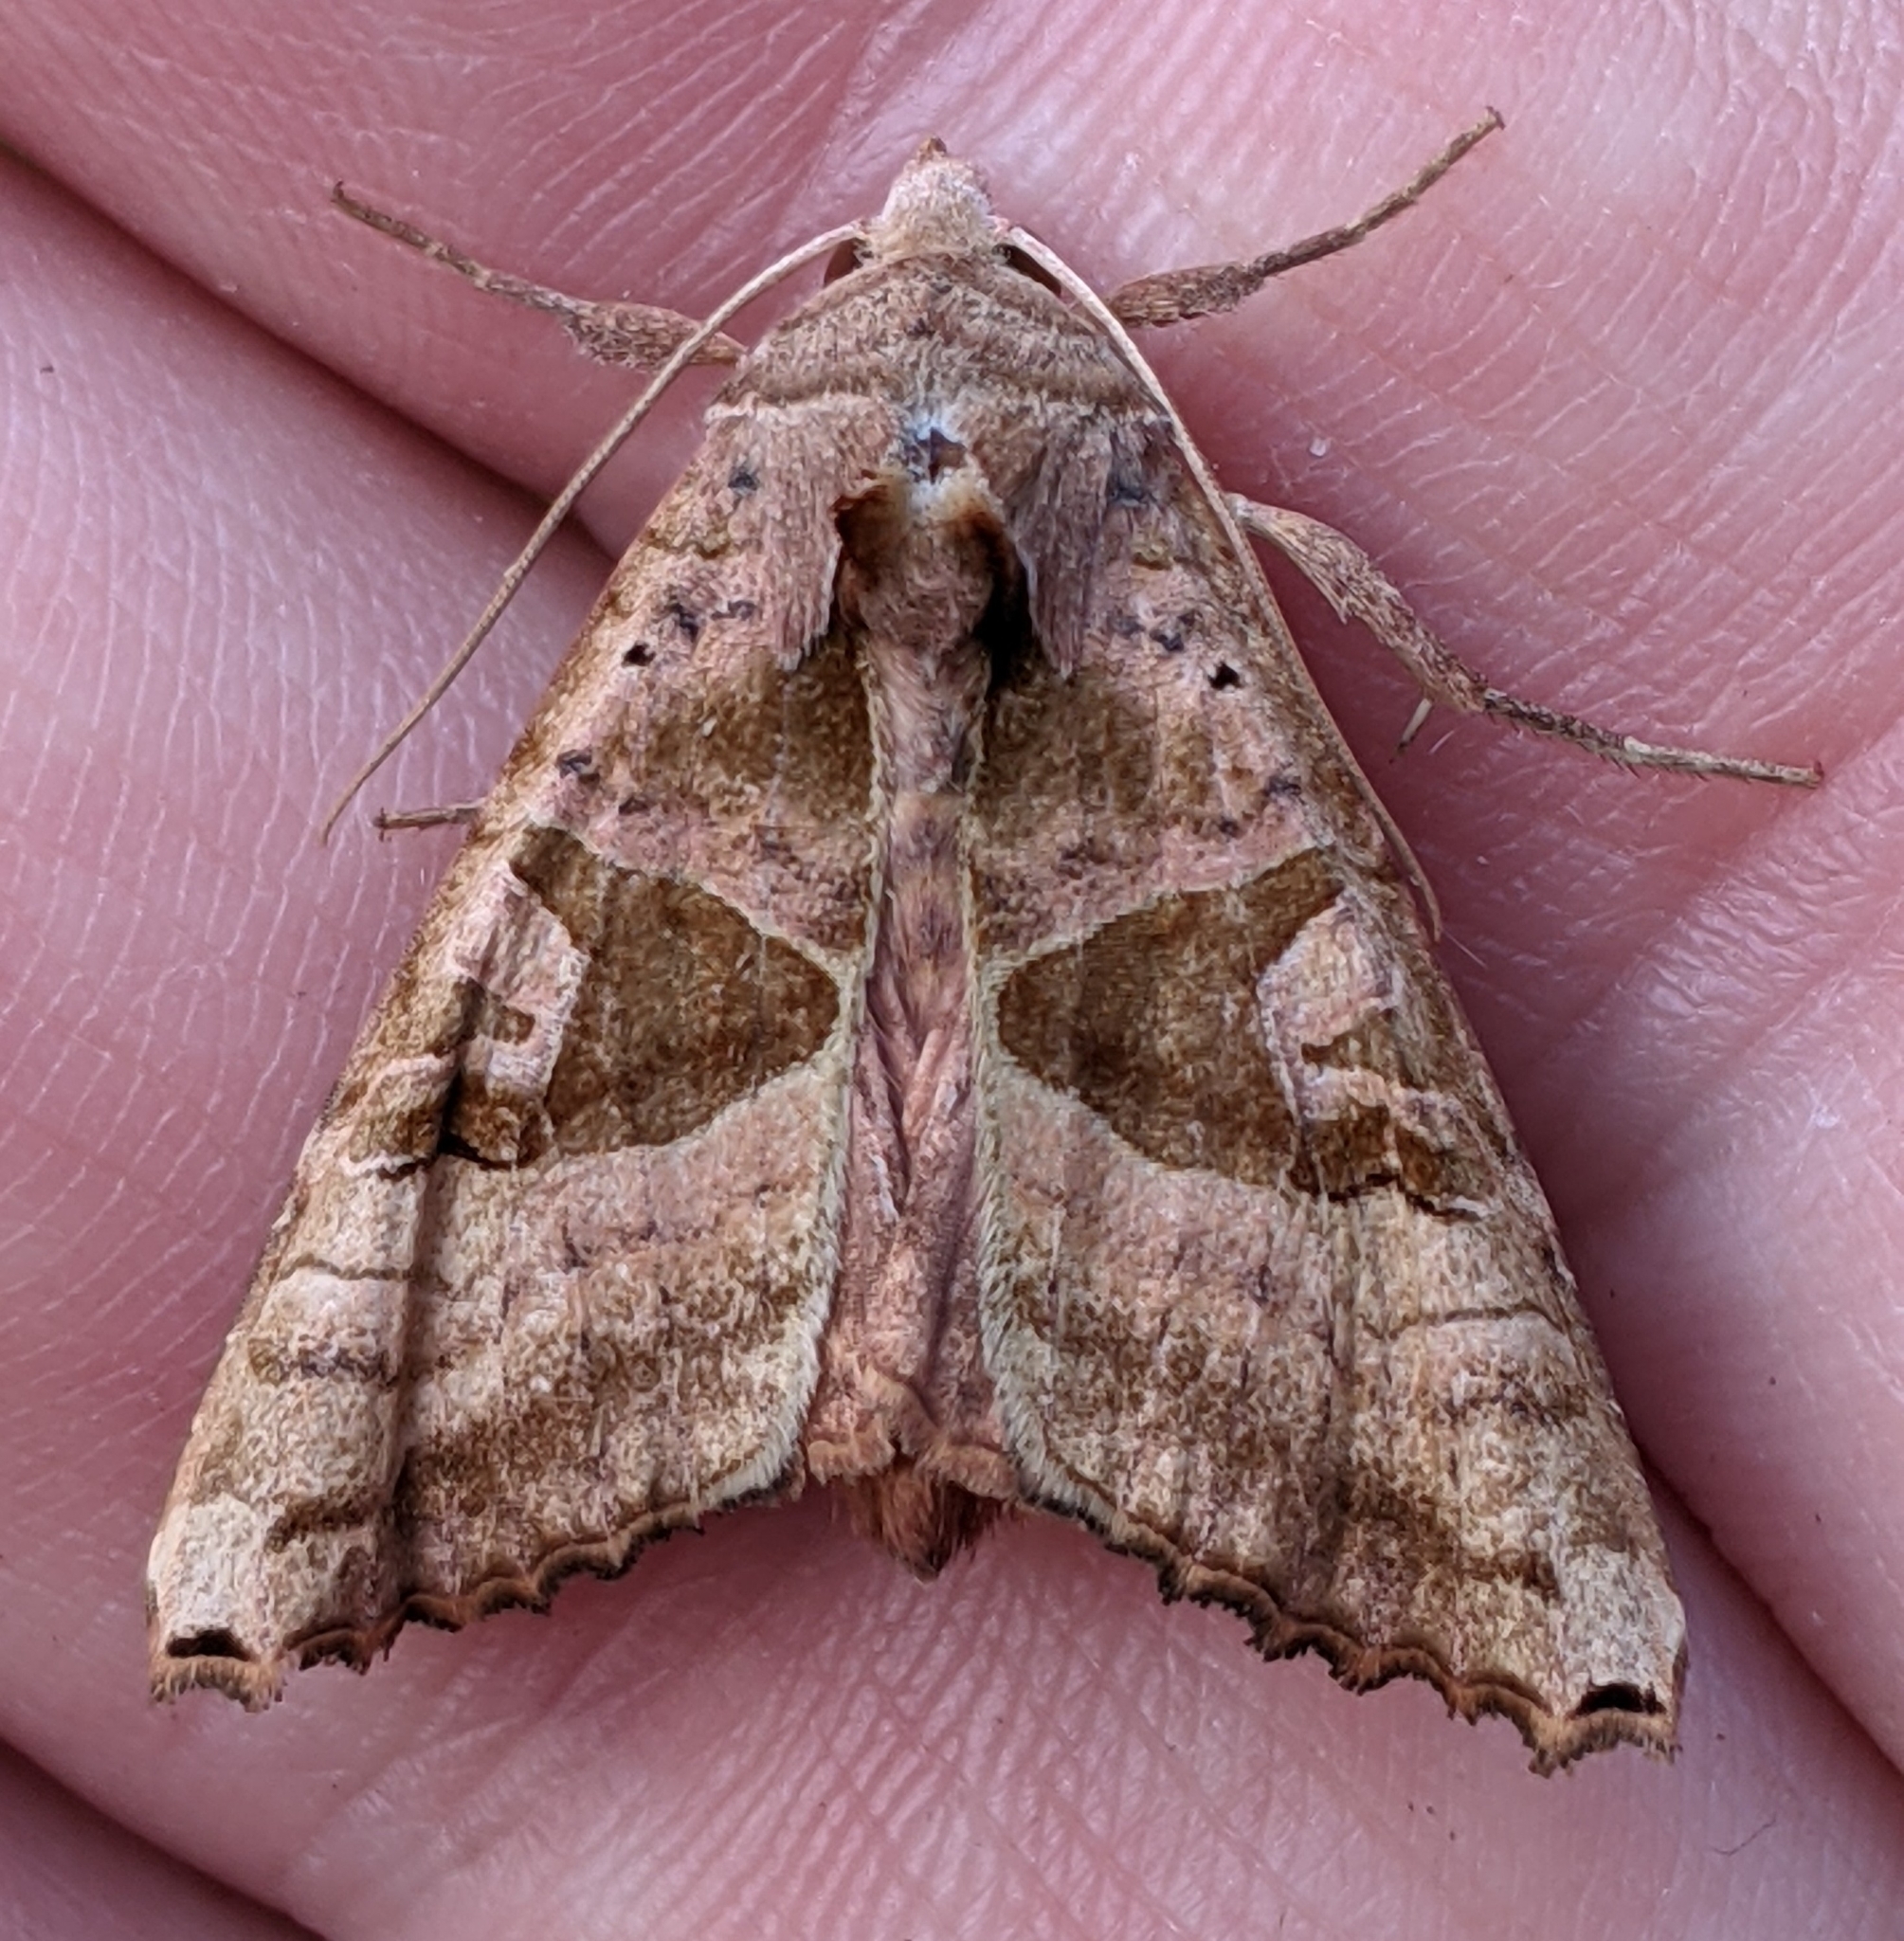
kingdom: Animalia
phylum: Arthropoda
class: Insecta
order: Lepidoptera
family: Noctuidae
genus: Phlogophora
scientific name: Phlogophora periculosa
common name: Brown angle shades
